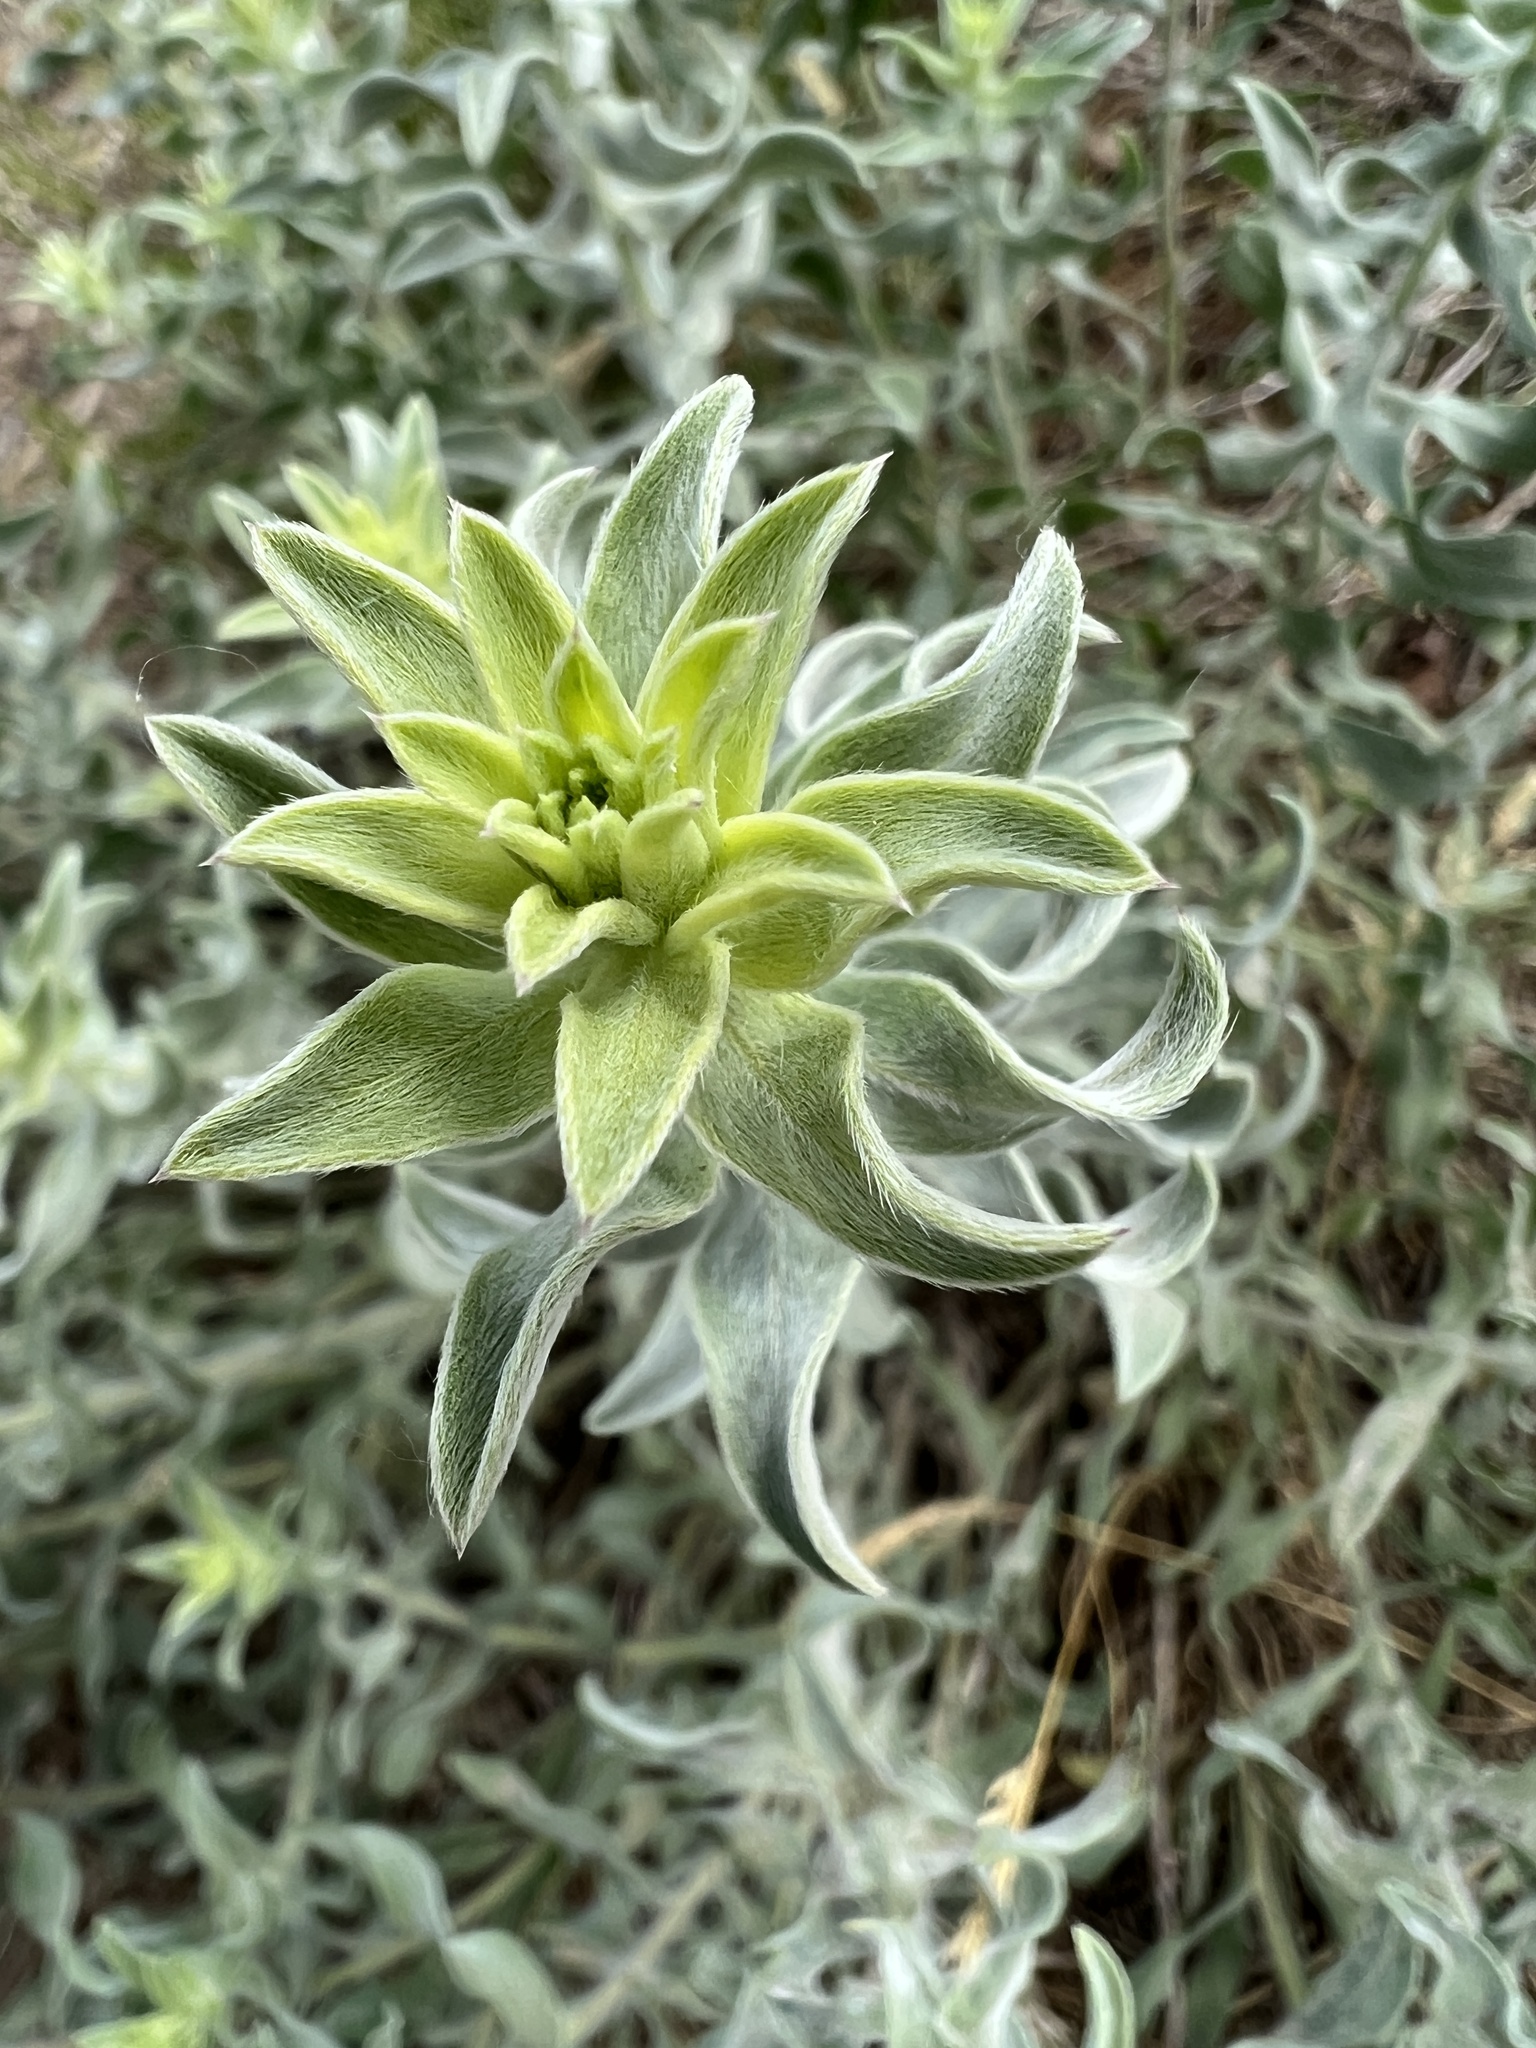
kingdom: Plantae
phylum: Tracheophyta
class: Magnoliopsida
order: Asterales
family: Asteraceae
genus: Heterotheca
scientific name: Heterotheca zionensis
